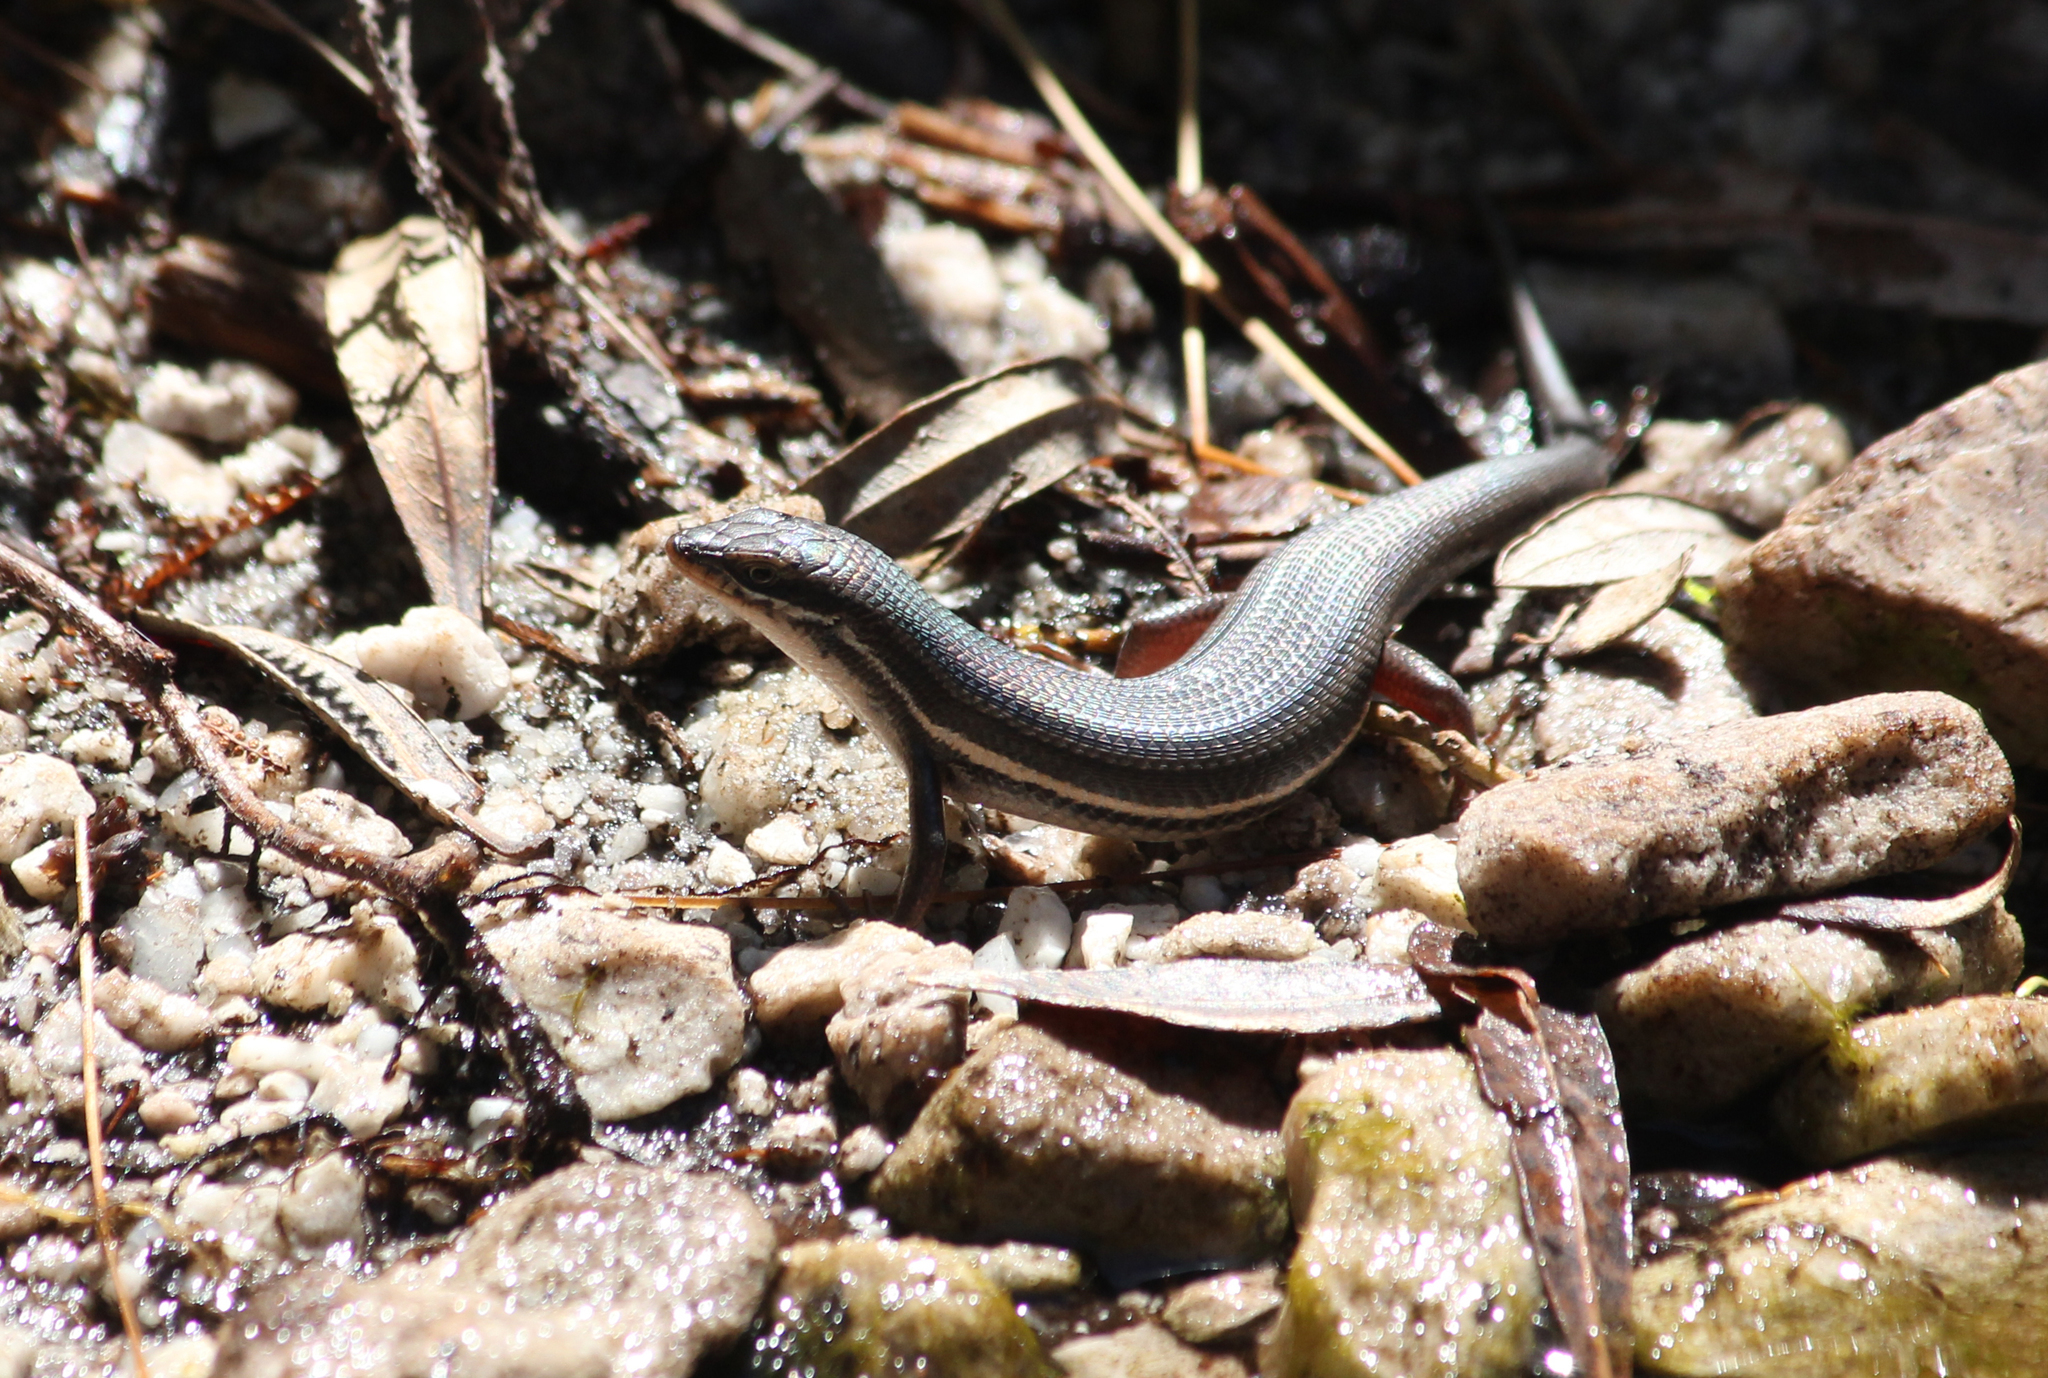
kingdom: Animalia
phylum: Chordata
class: Squamata
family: Scincidae
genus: Trachylepis
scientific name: Trachylepis homalocephala
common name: Red-sided skink
